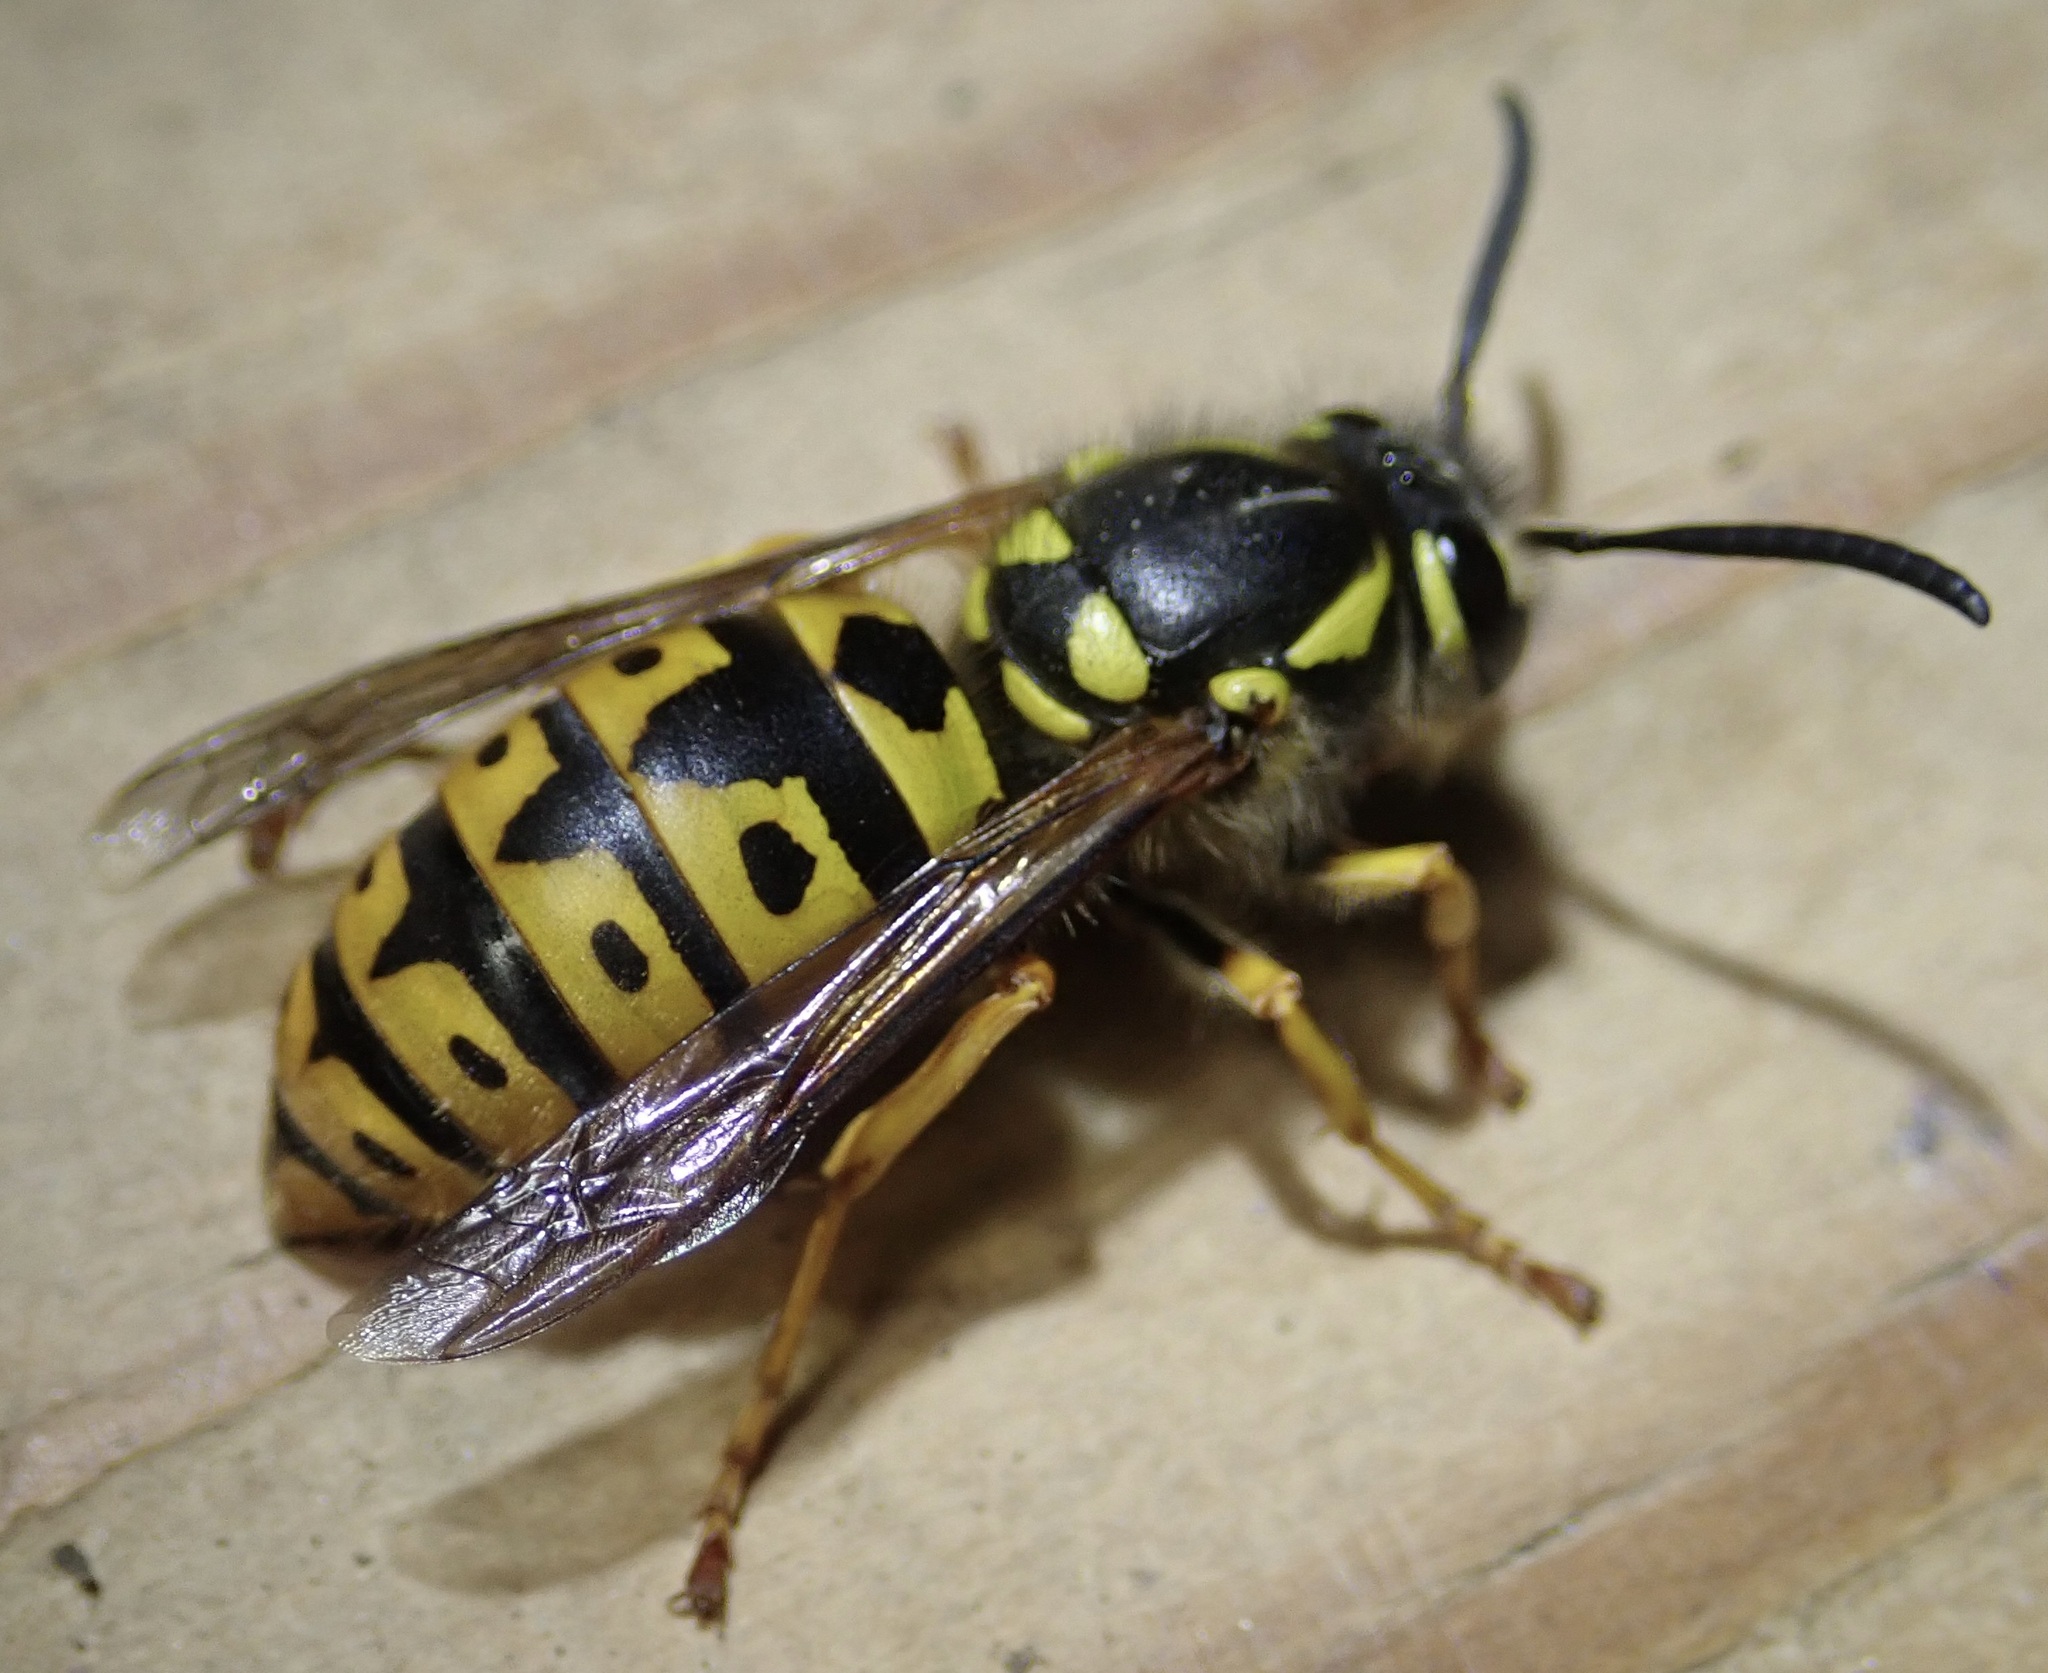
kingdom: Animalia
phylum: Arthropoda
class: Insecta
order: Hymenoptera
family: Vespidae
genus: Vespula
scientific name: Vespula germanica
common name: German wasp
